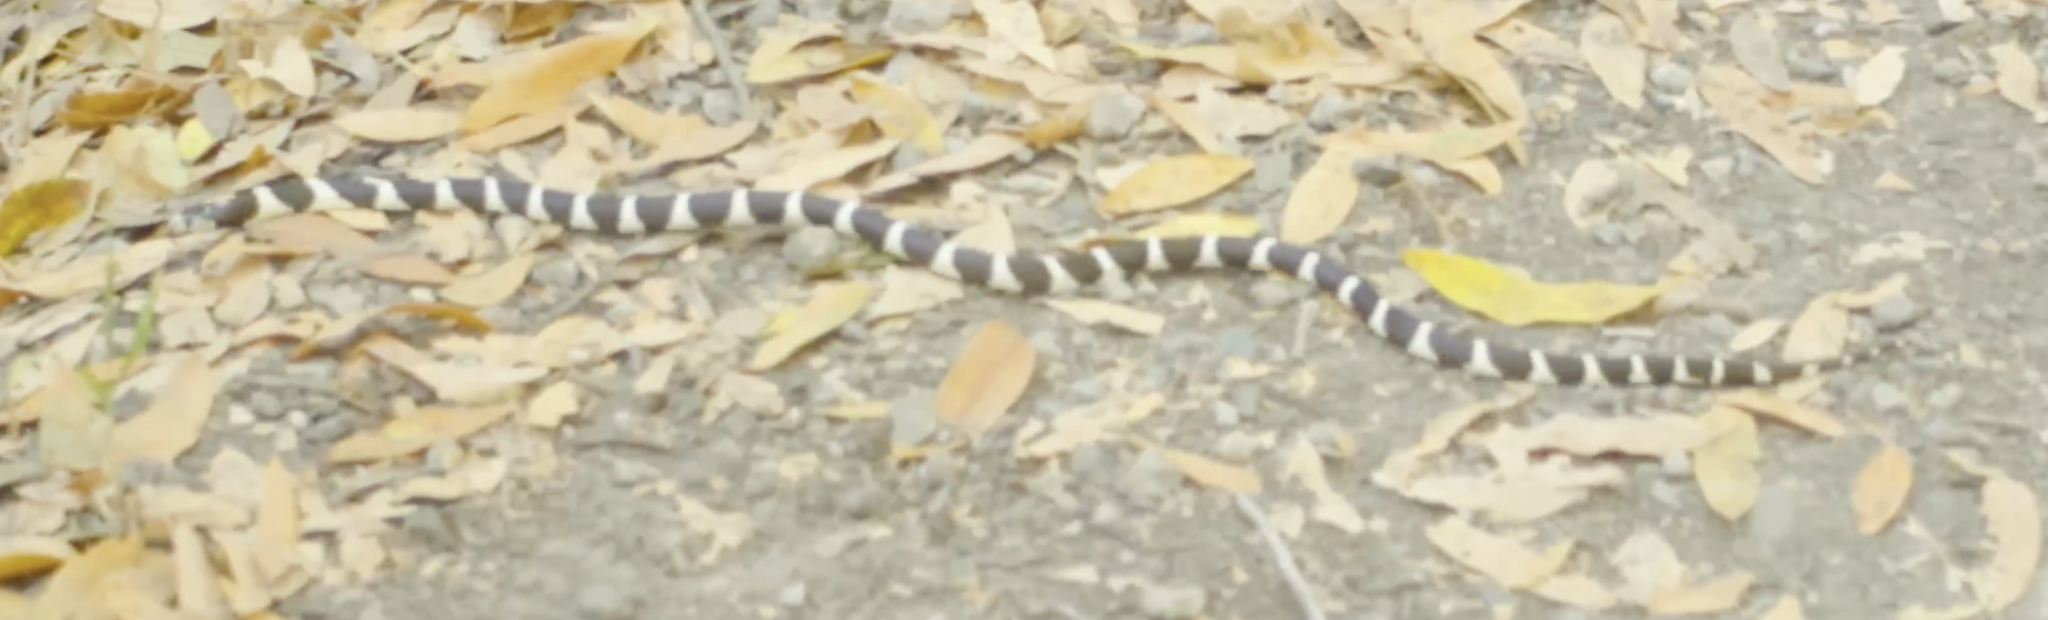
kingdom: Animalia
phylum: Chordata
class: Squamata
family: Colubridae
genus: Lampropeltis
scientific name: Lampropeltis californiae
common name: California kingsnake
